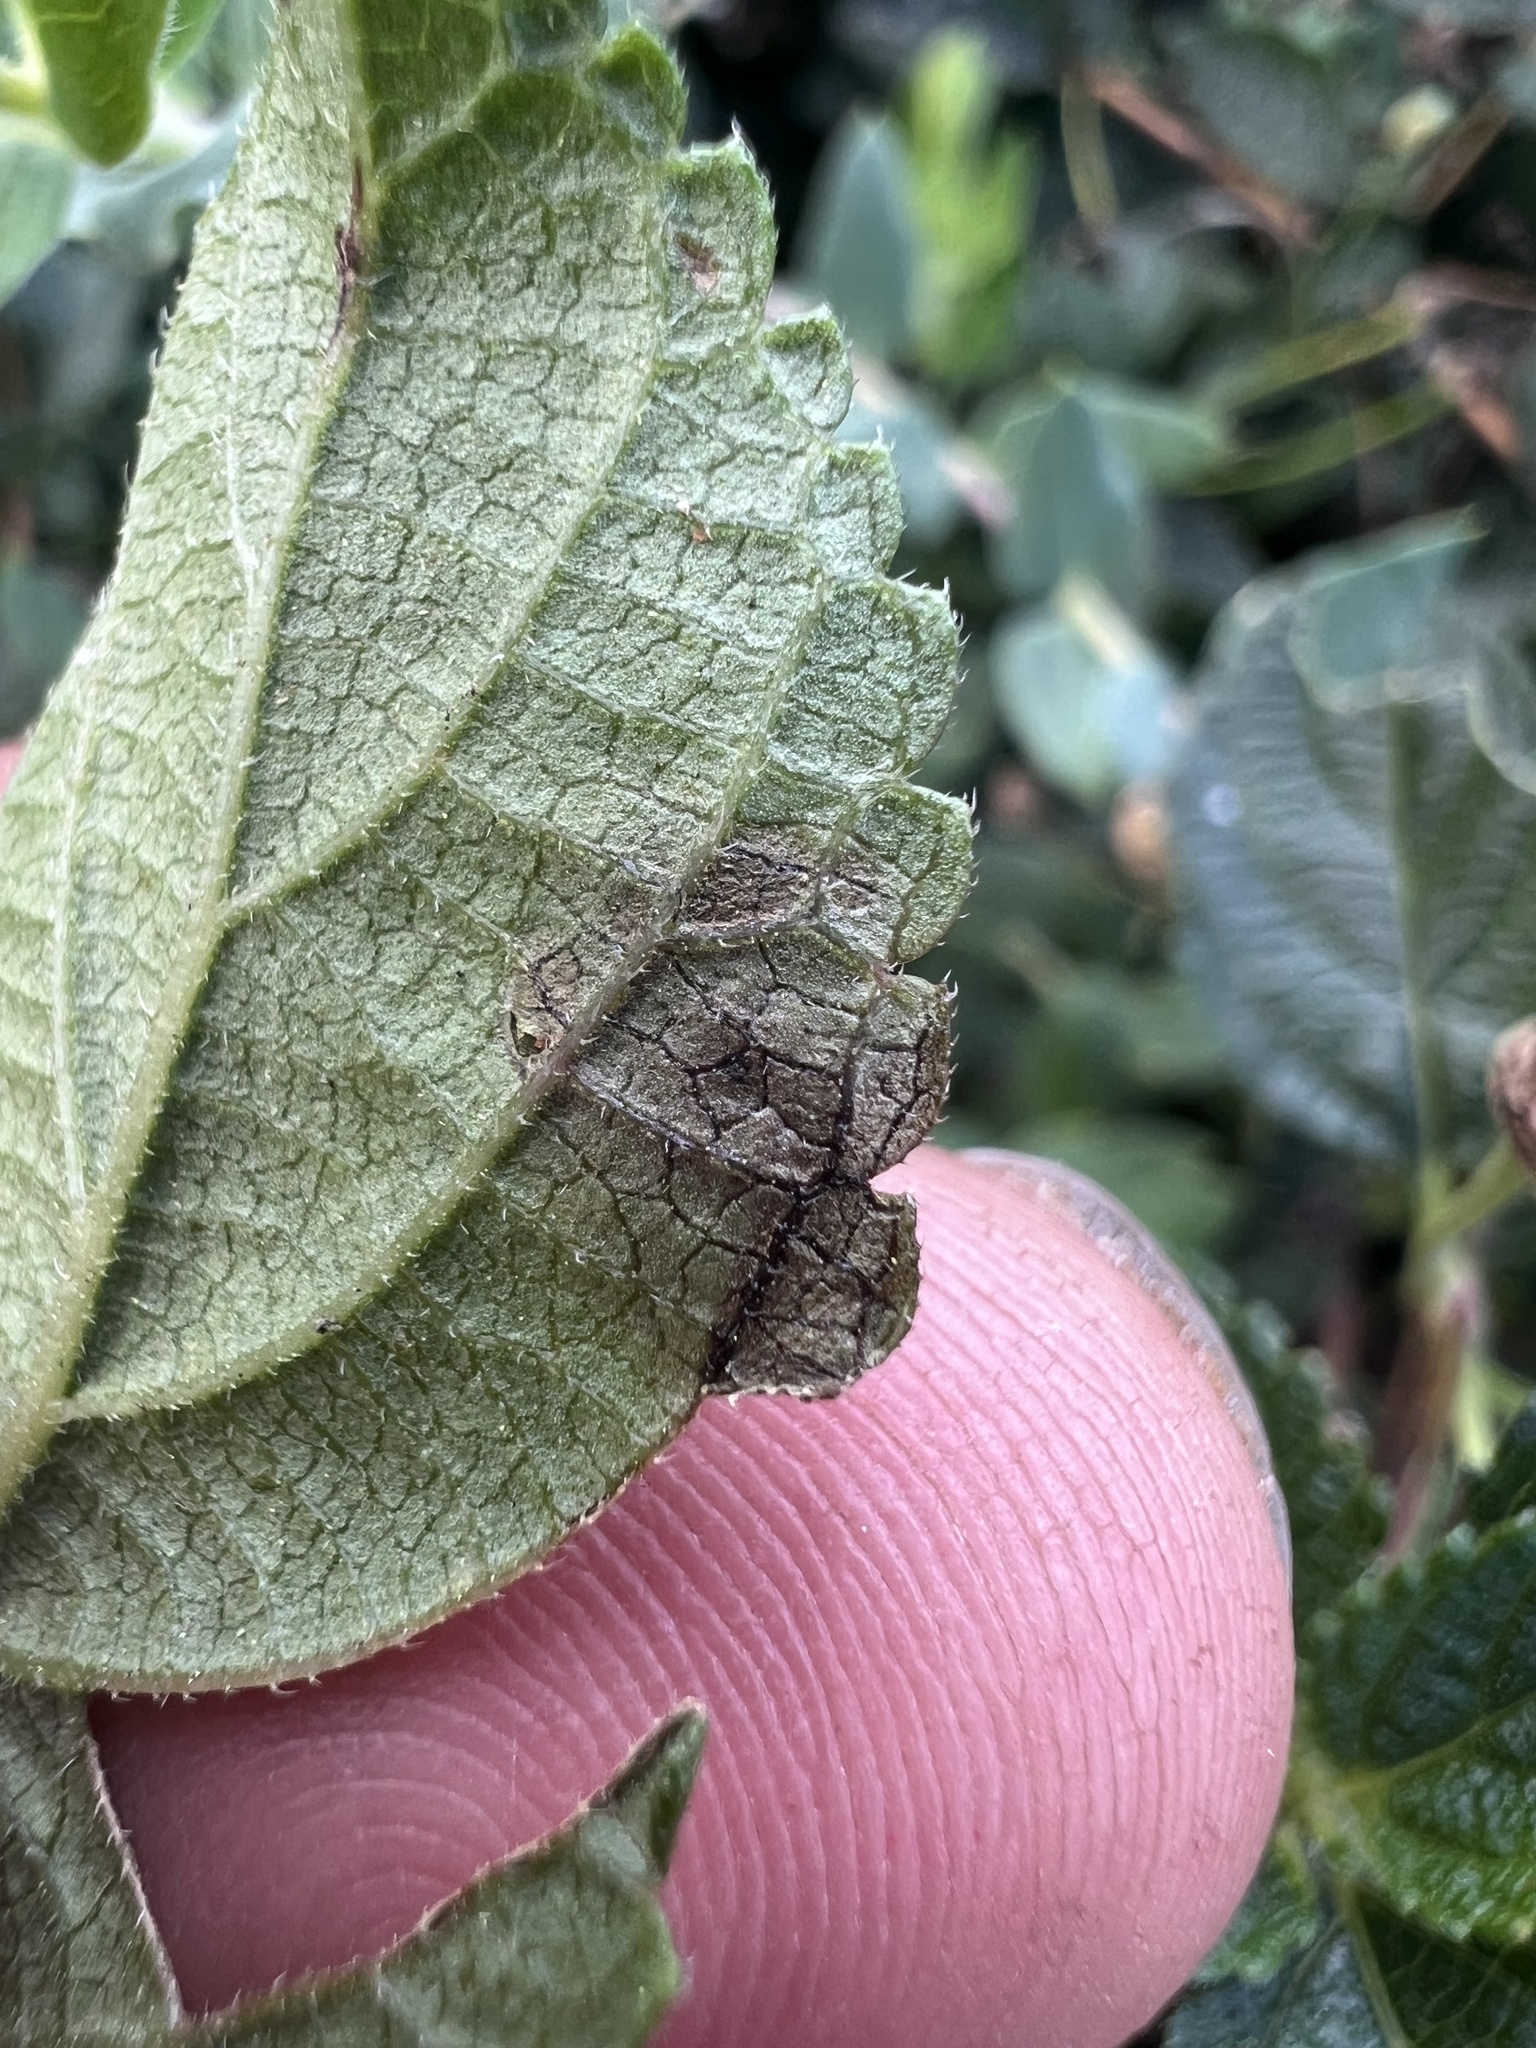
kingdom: Animalia
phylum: Arthropoda
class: Insecta
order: Diptera
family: Agromyzidae
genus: Calycomyza
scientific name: Calycomyza lantanae
